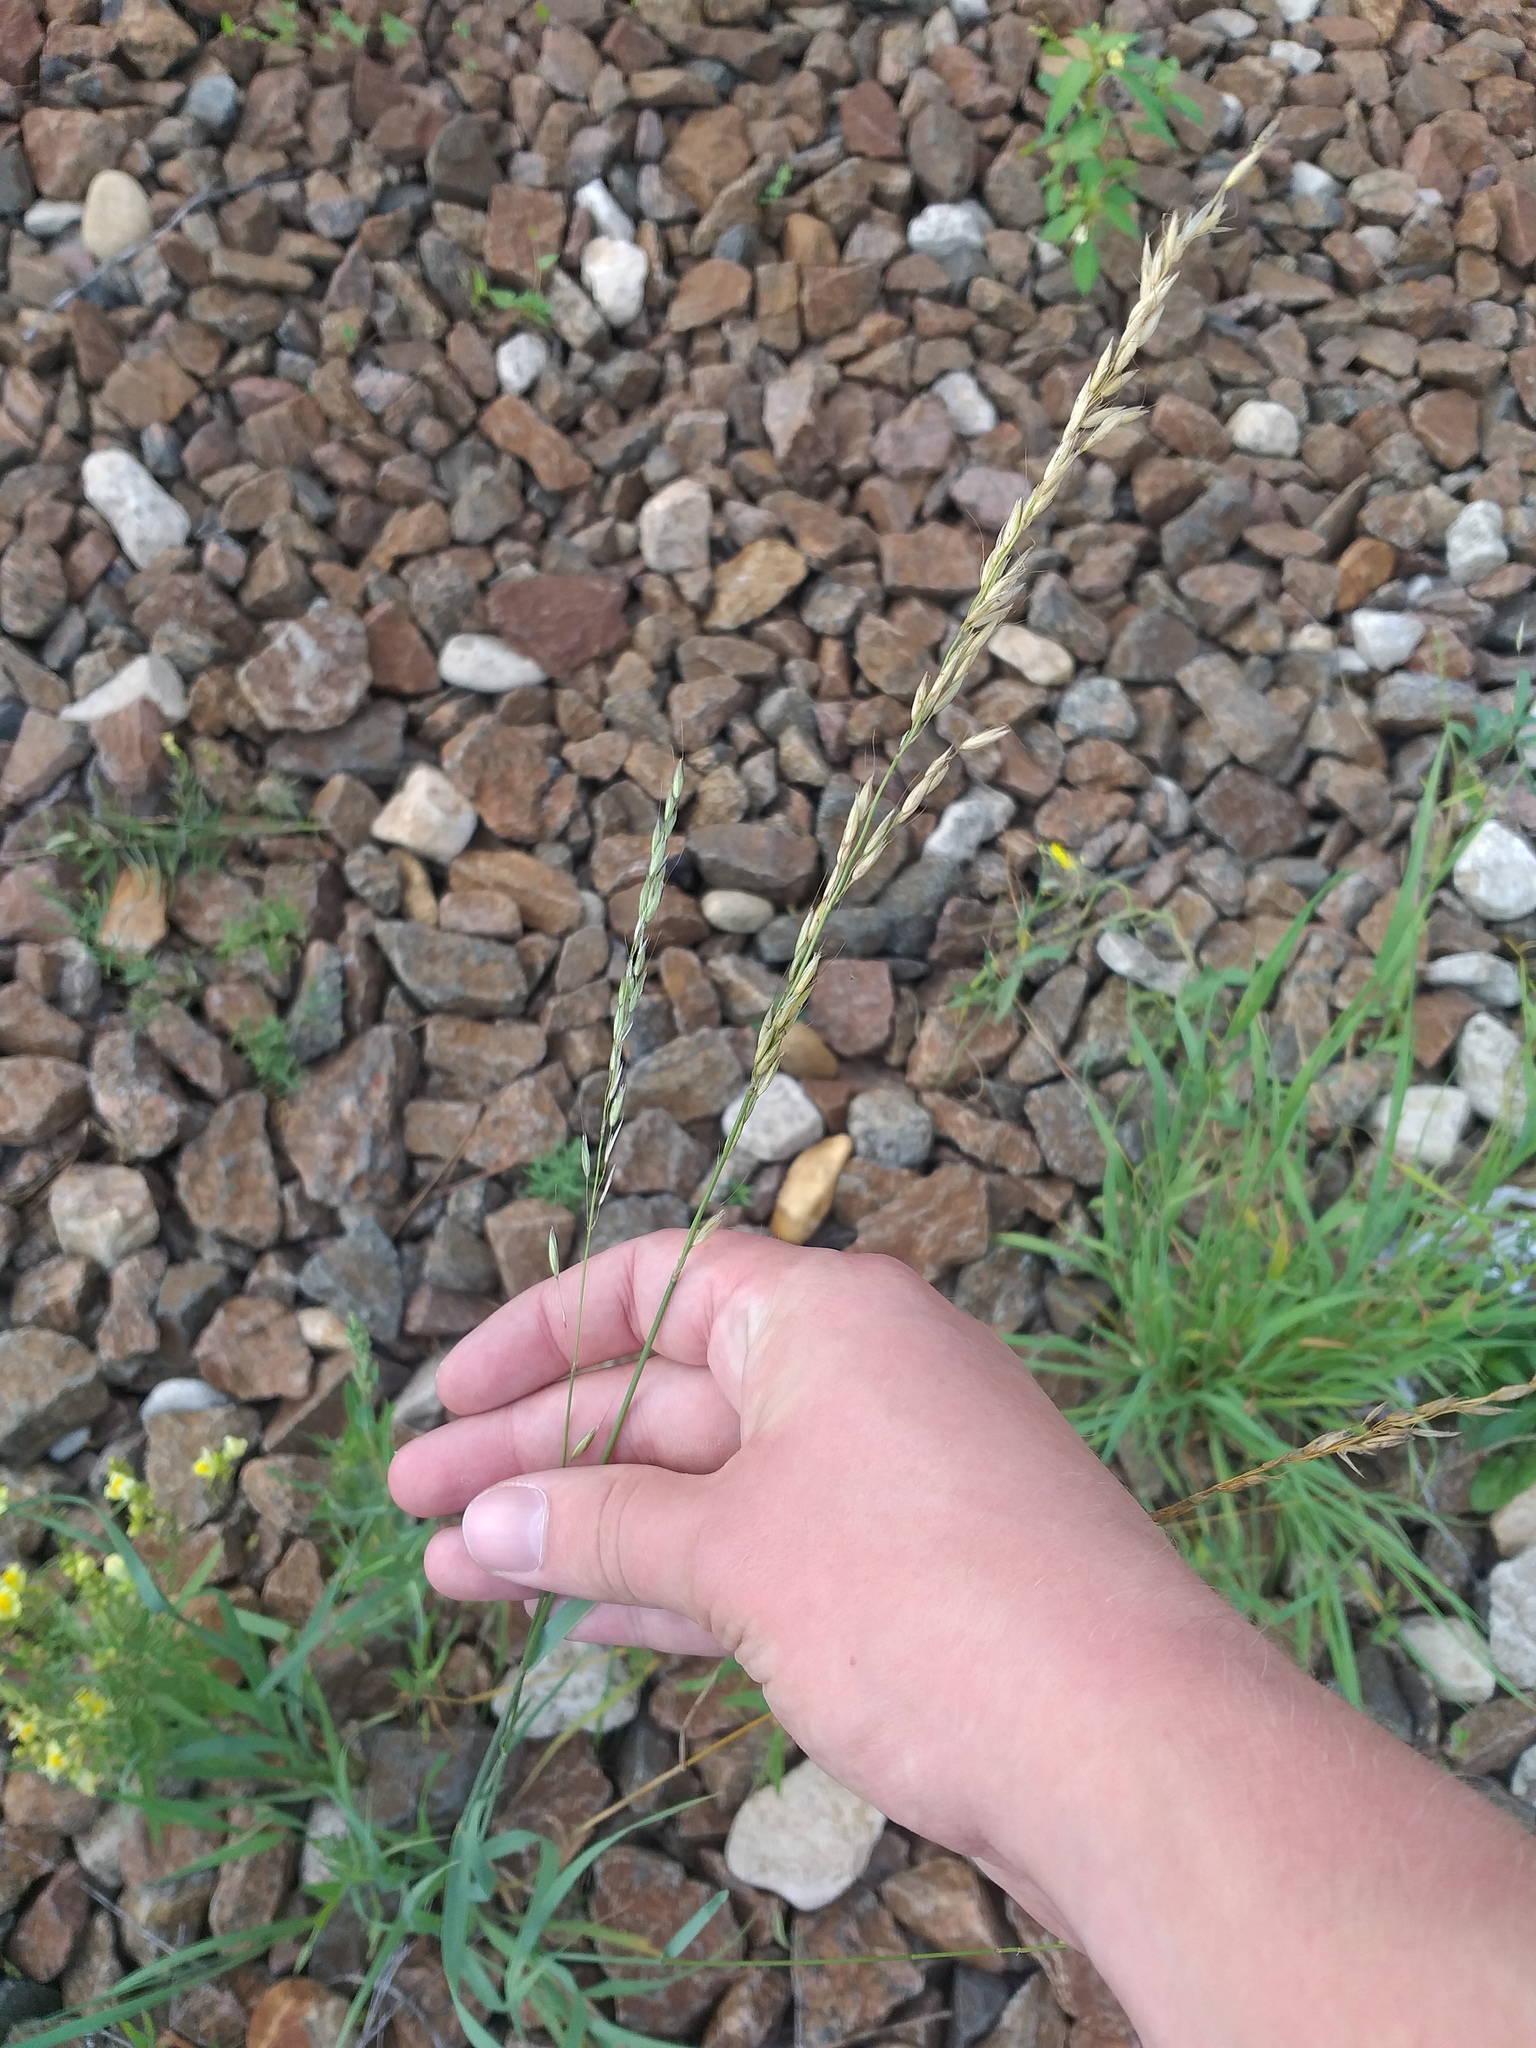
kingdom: Plantae
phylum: Tracheophyta
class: Liliopsida
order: Poales
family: Poaceae
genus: Arrhenatherum
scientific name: Arrhenatherum elatius
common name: Tall oatgrass
